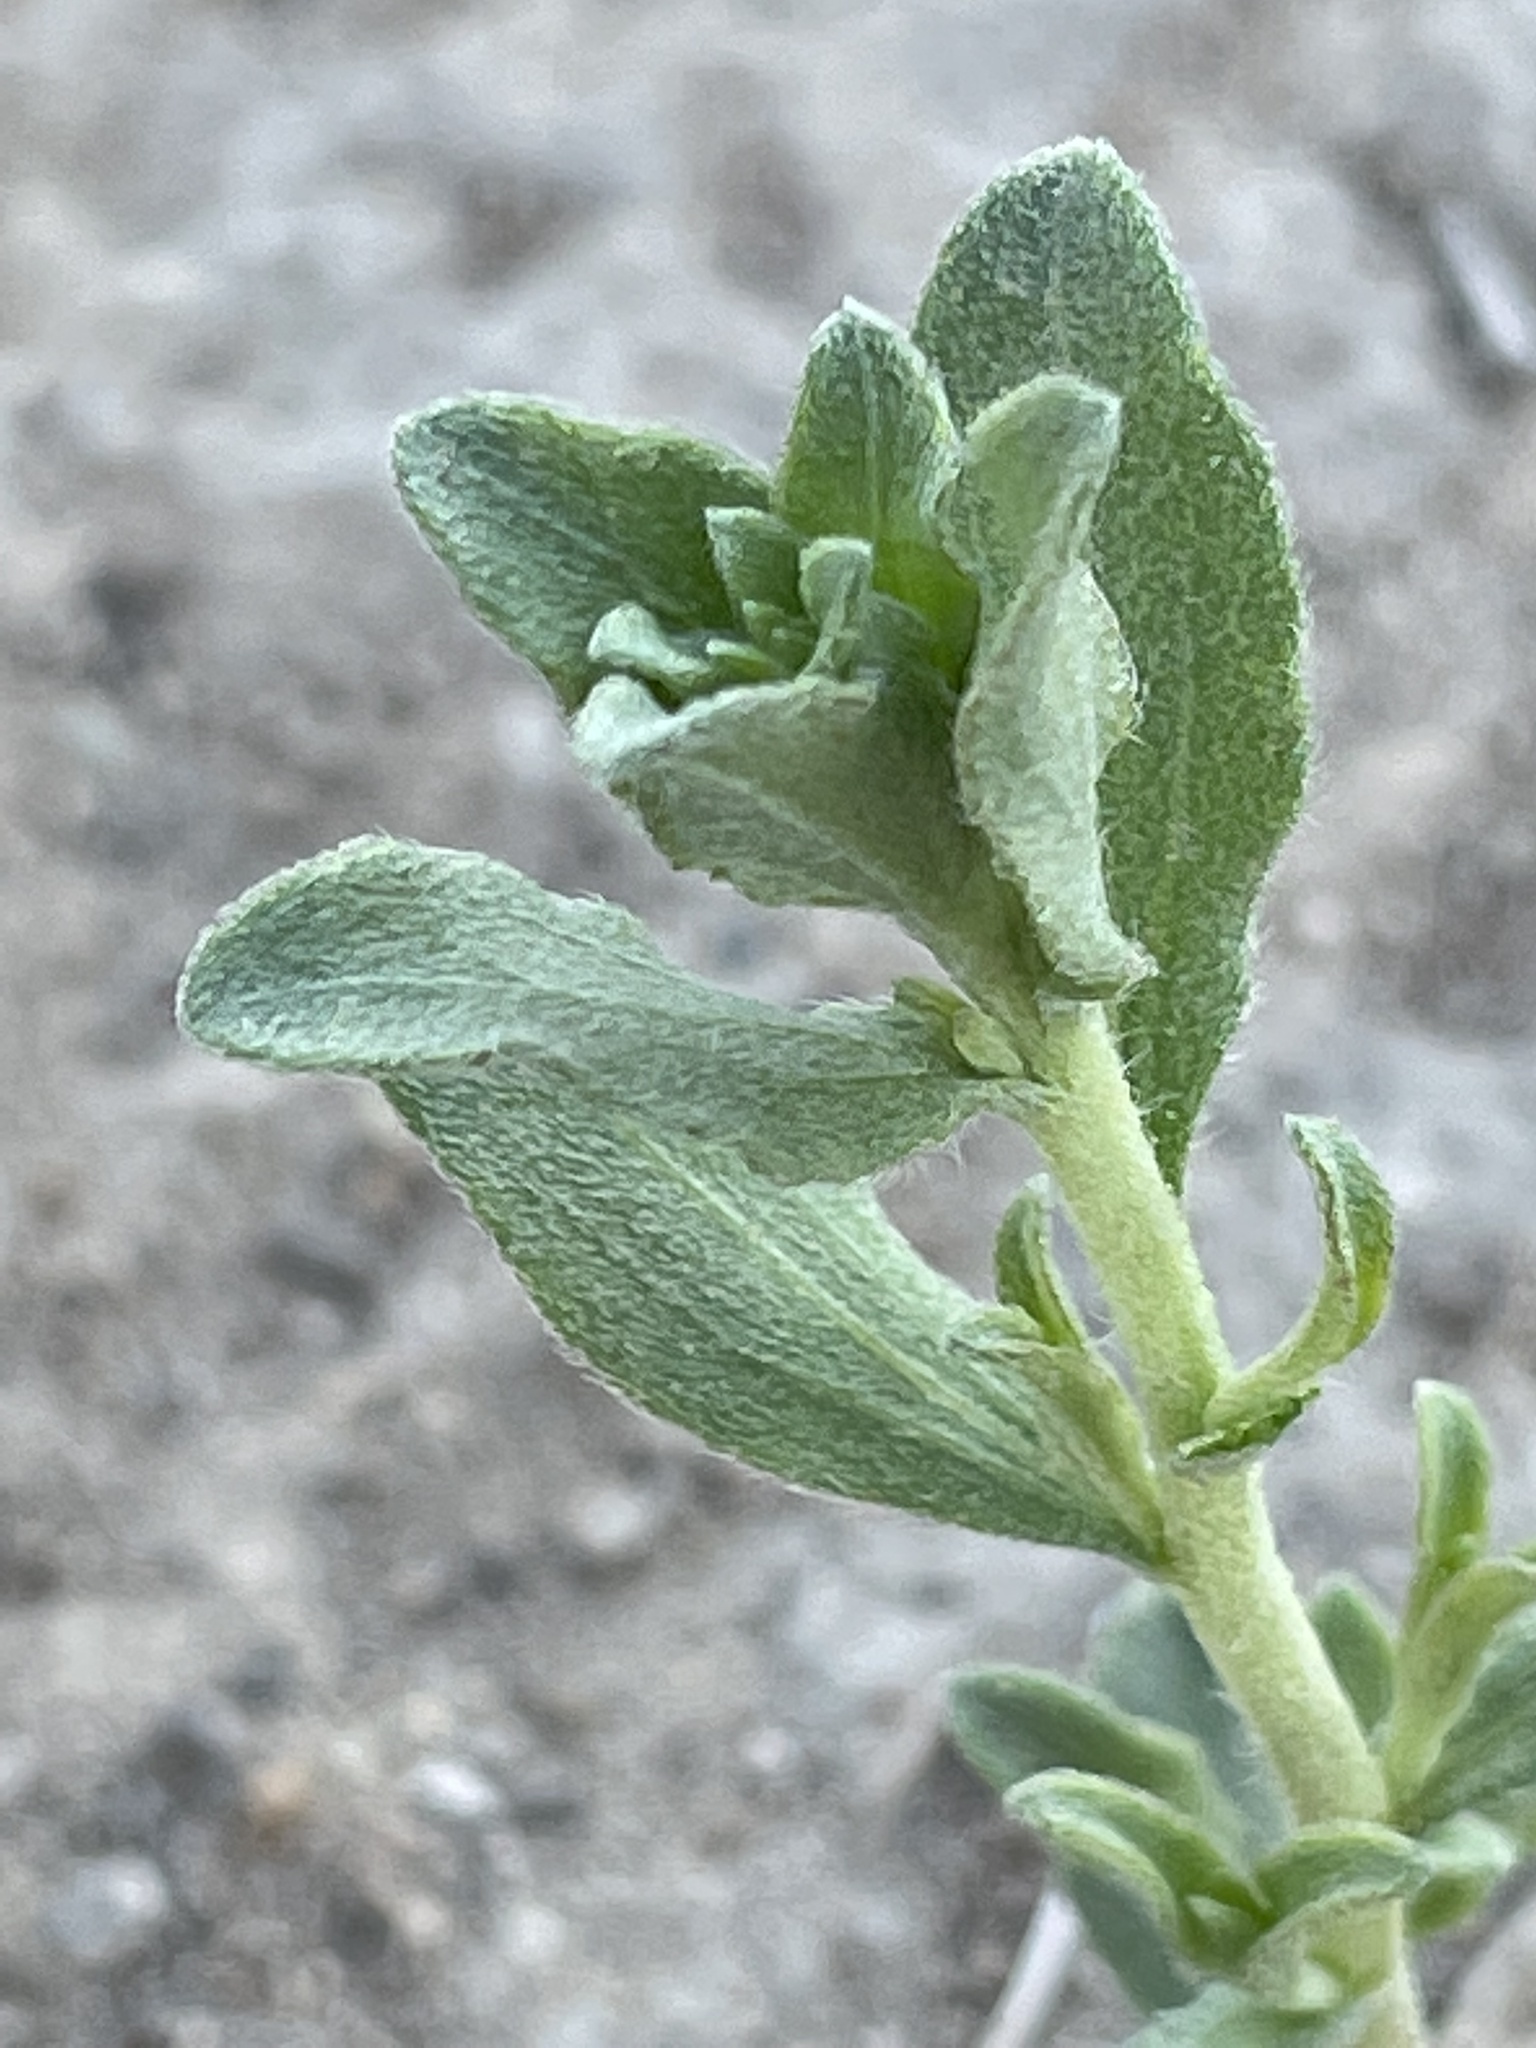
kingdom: Plantae
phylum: Tracheophyta
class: Magnoliopsida
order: Asterales
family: Asteraceae
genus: Iva
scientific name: Iva axillaris
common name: Poverty sumpweed
